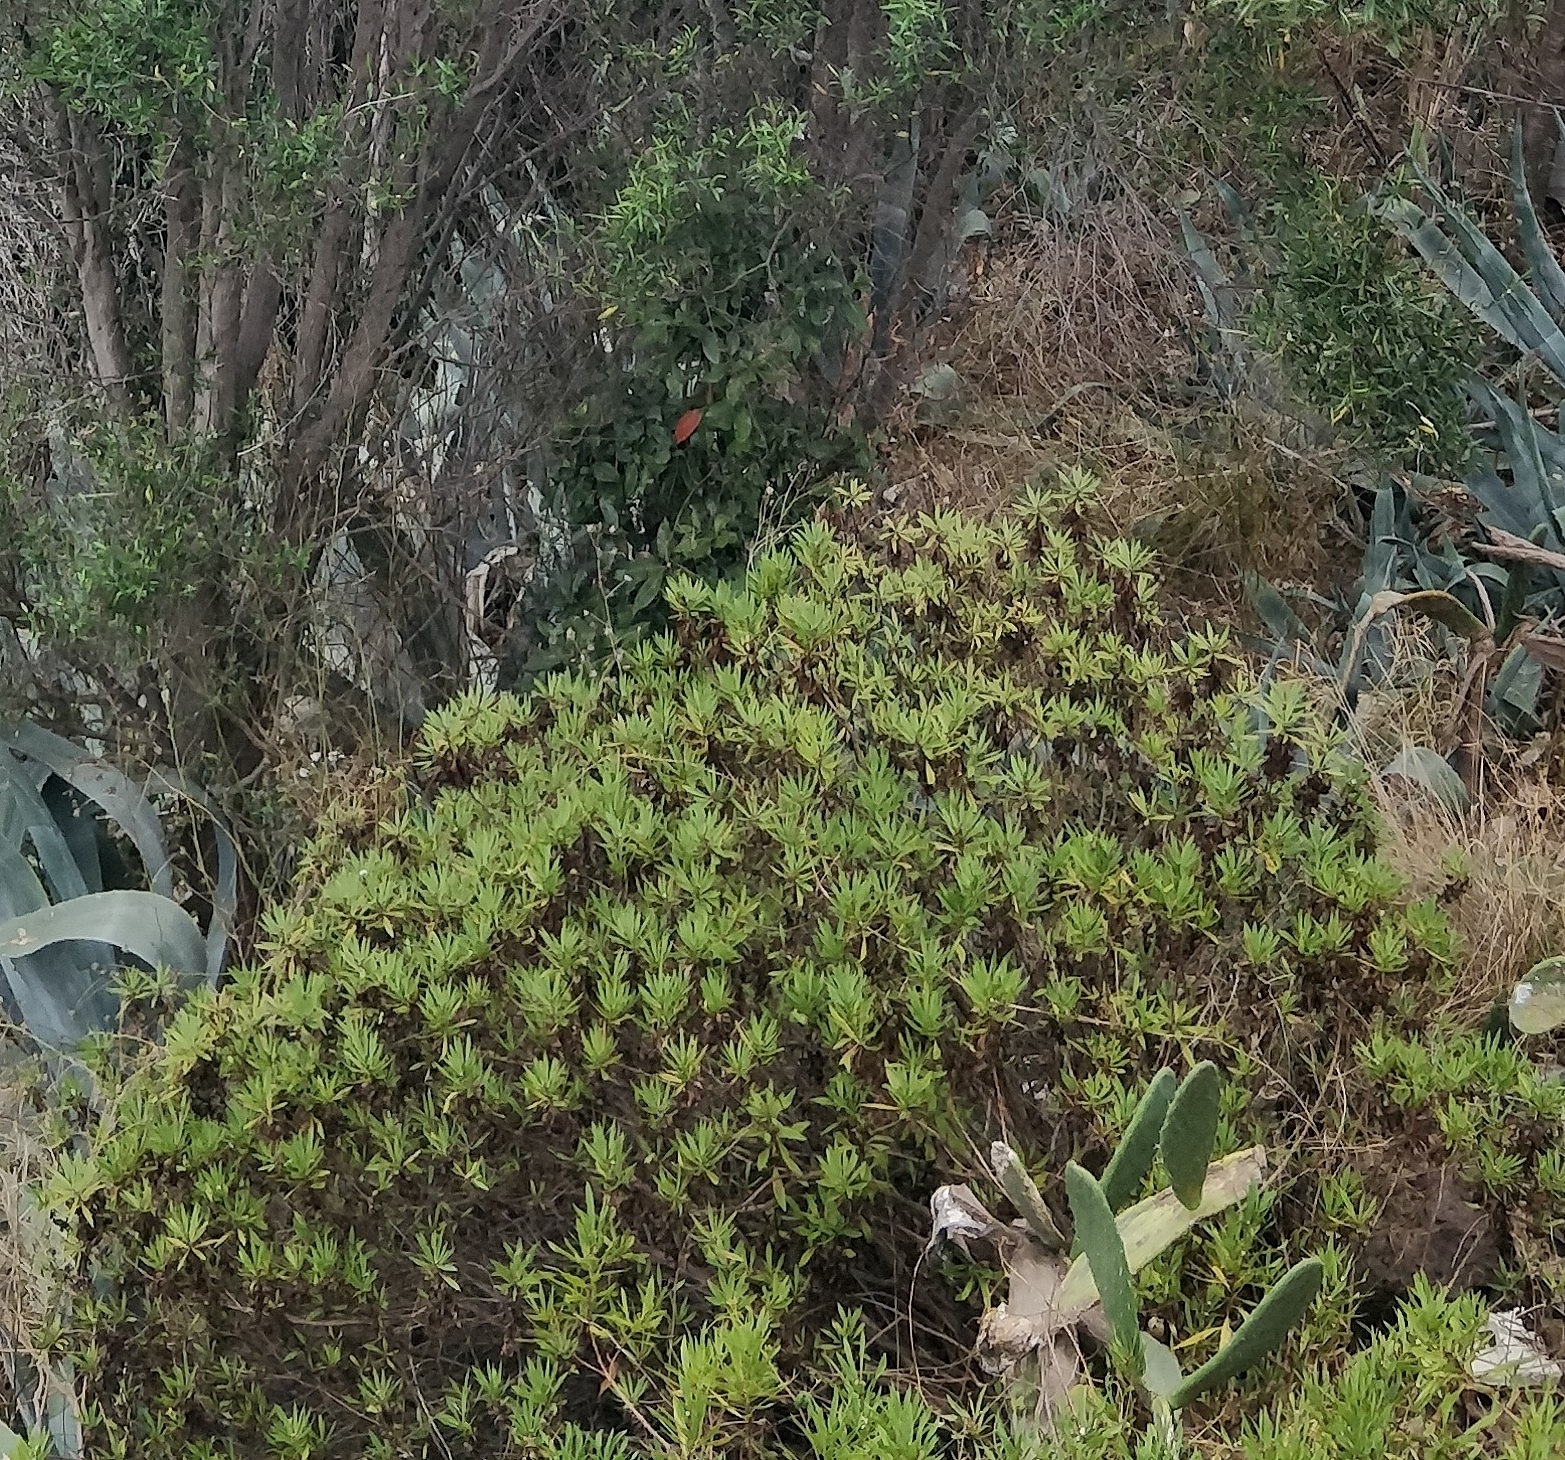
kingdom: Plantae
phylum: Tracheophyta
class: Magnoliopsida
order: Lamiales
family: Plantaginaceae
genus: Globularia
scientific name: Globularia salicina
